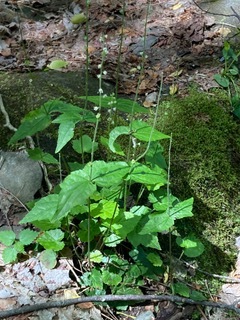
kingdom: Plantae
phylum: Tracheophyta
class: Magnoliopsida
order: Saxifragales
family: Saxifragaceae
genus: Mitella
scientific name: Mitella diphylla
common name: Coolwort
